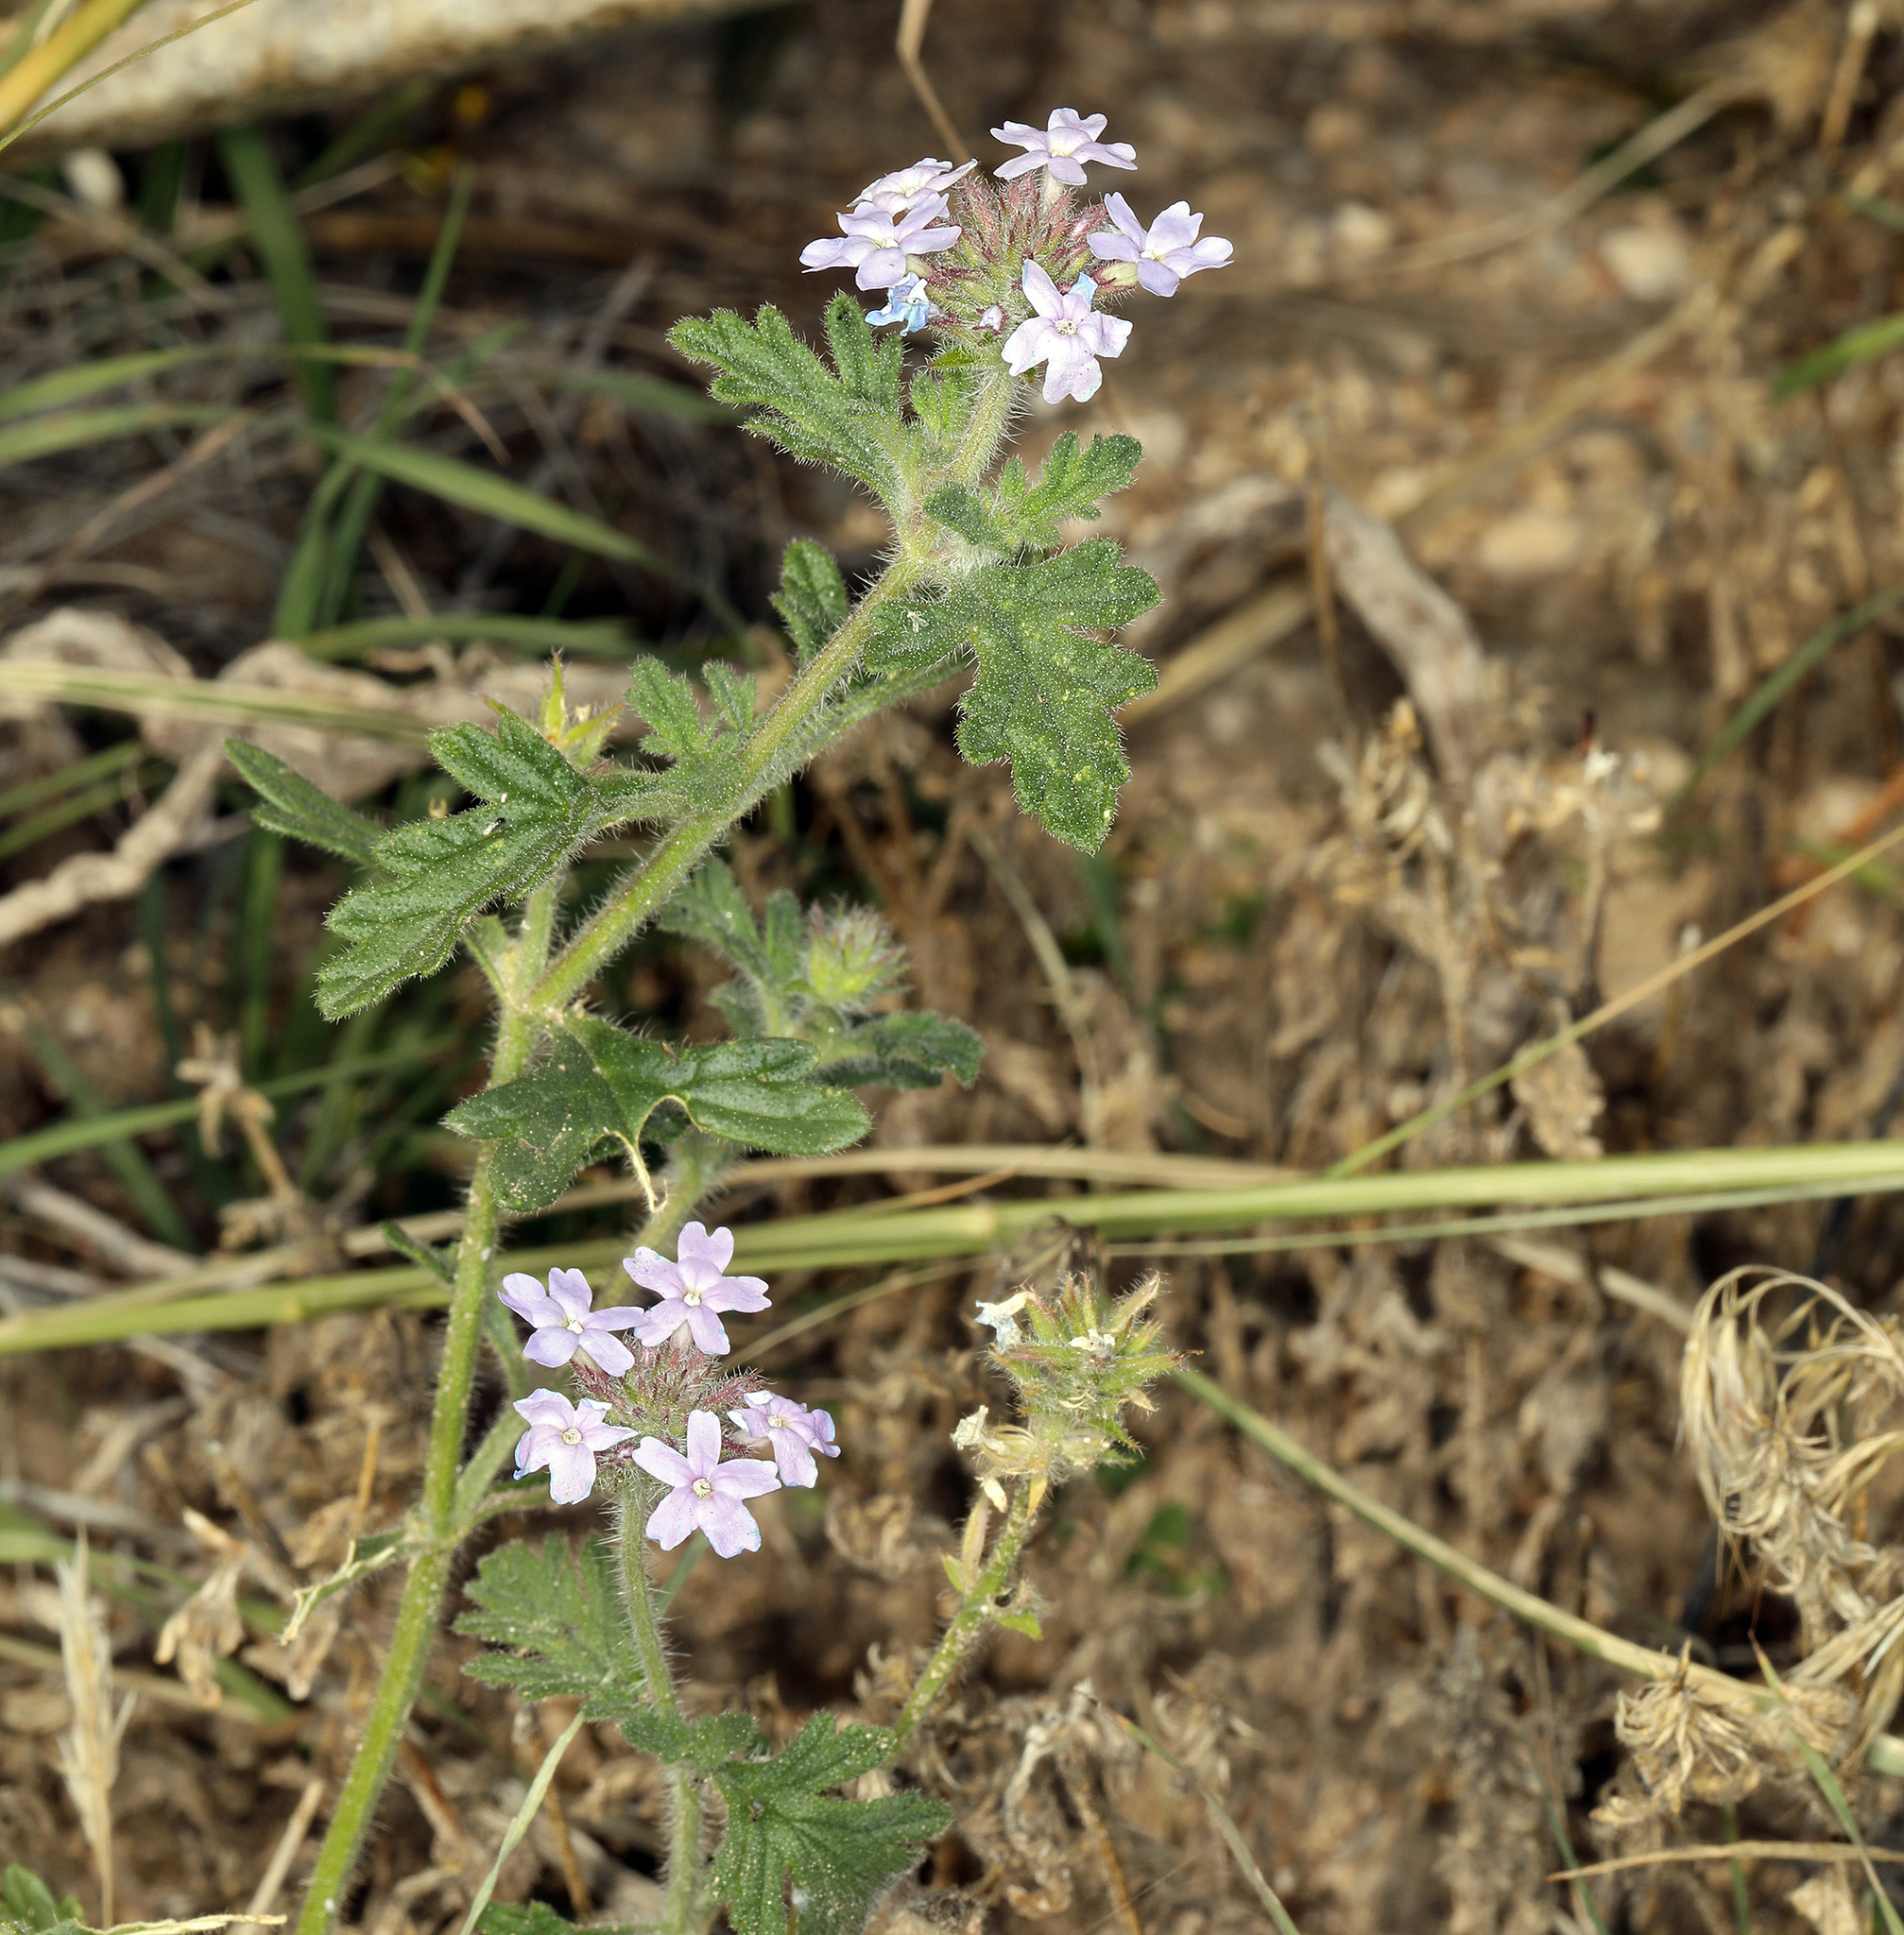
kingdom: Plantae
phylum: Tracheophyta
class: Magnoliopsida
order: Lamiales
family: Verbenaceae
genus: Verbena
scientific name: Verbena gooddingii
